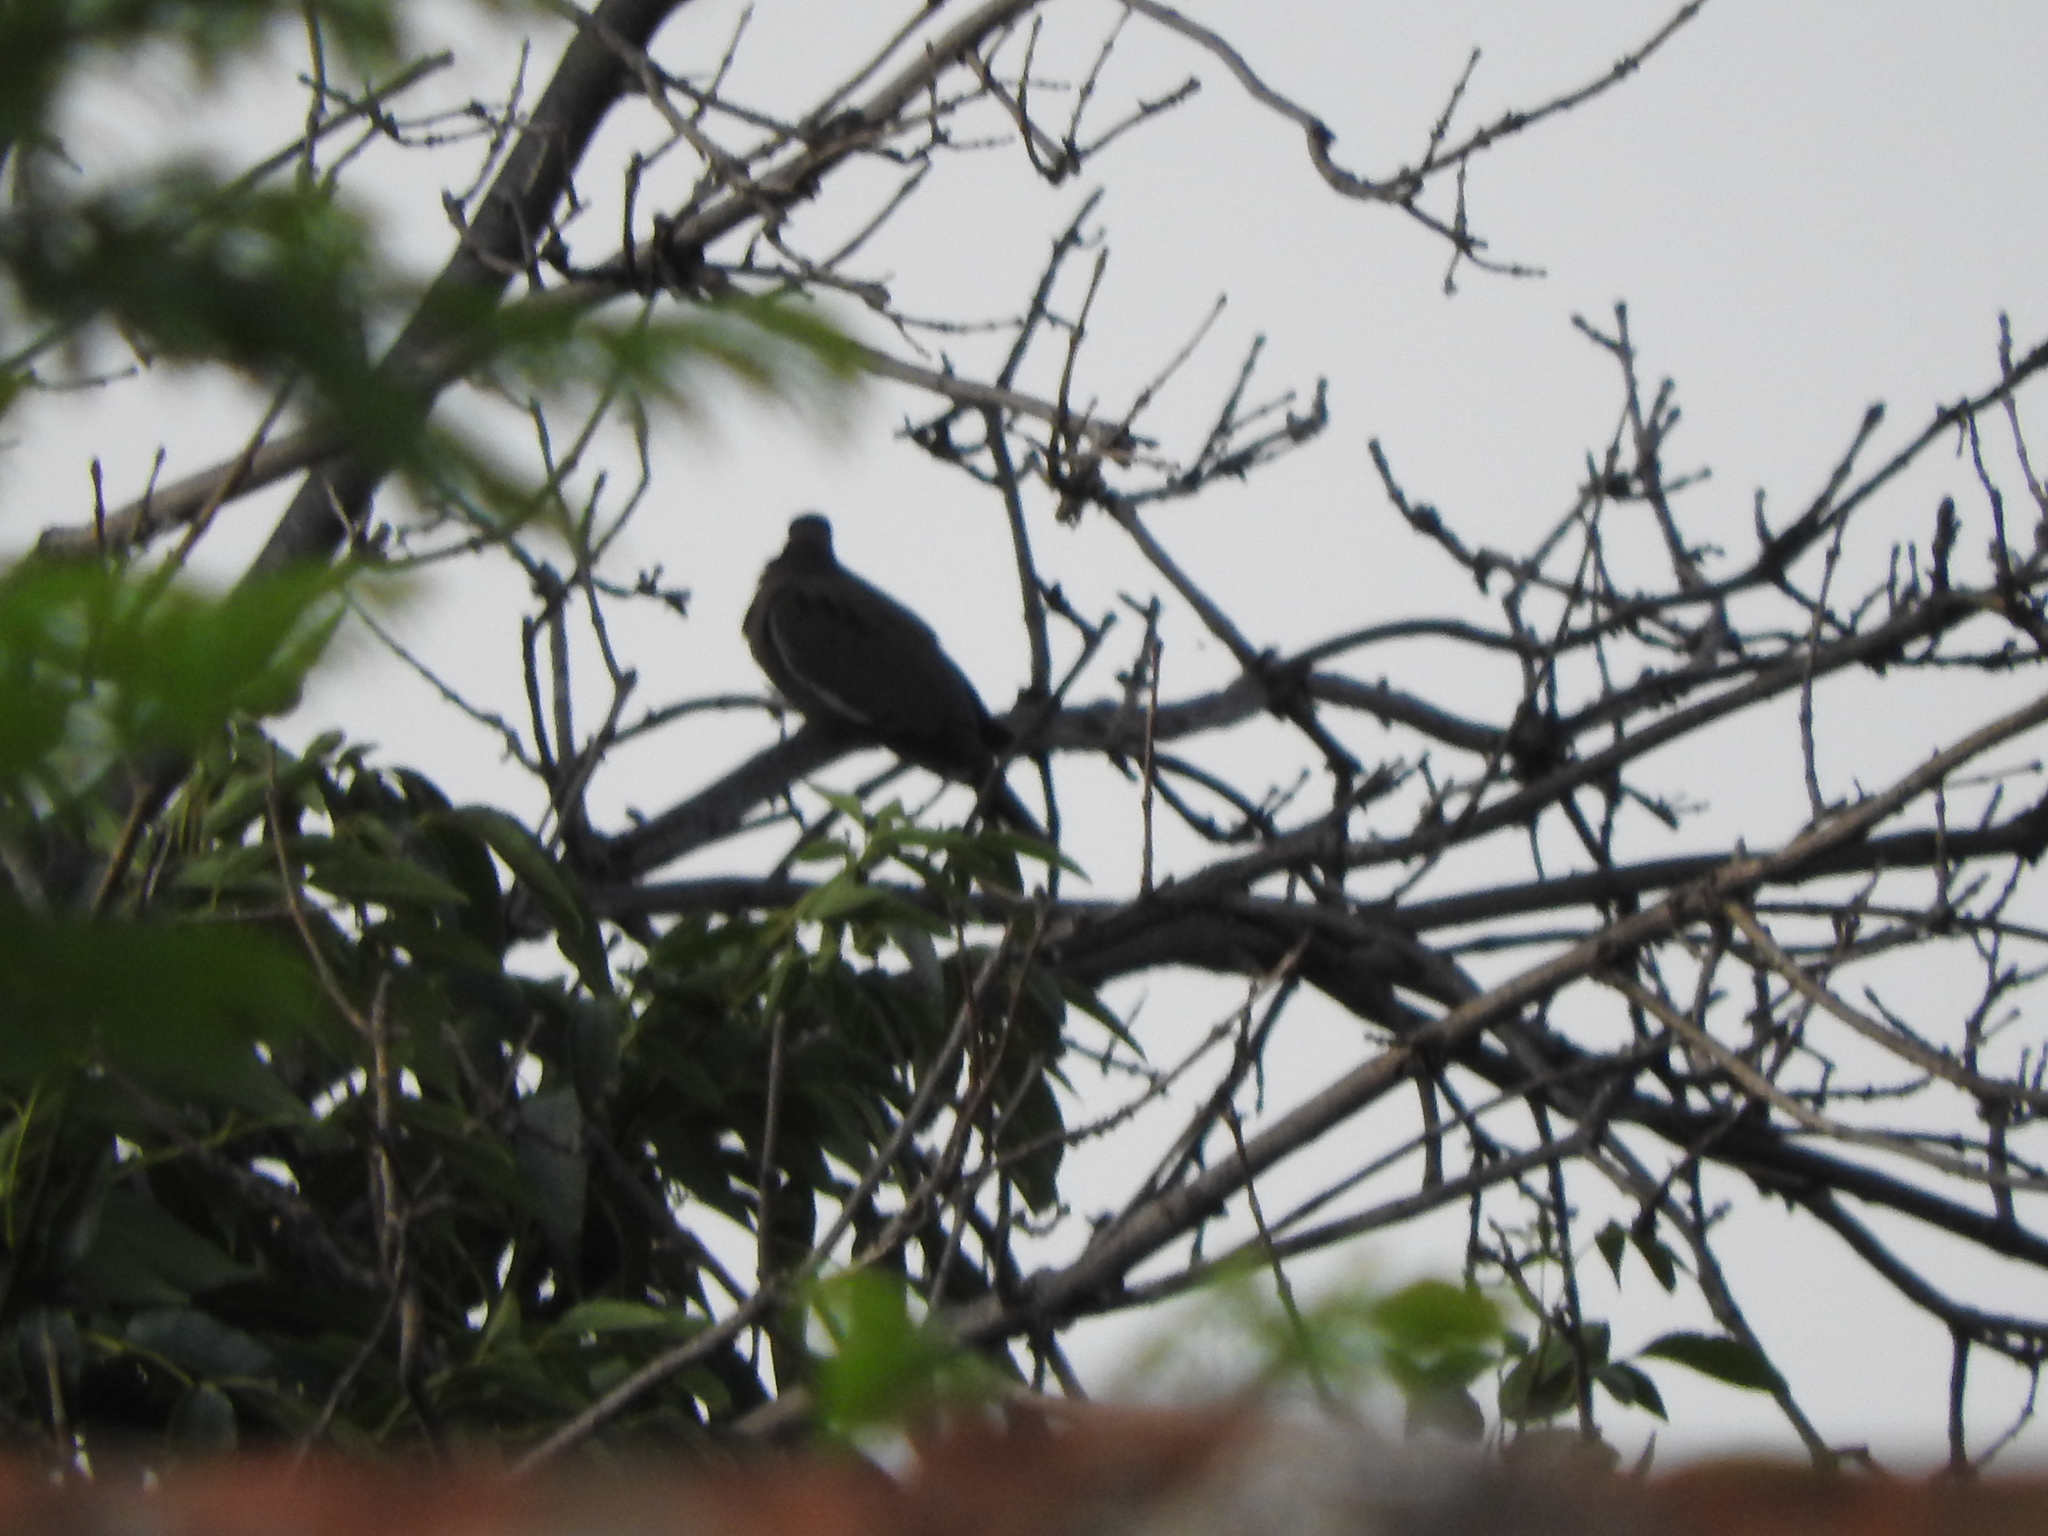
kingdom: Animalia
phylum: Chordata
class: Aves
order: Columbiformes
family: Columbidae
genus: Zenaida
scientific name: Zenaida asiatica
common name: White-winged dove
